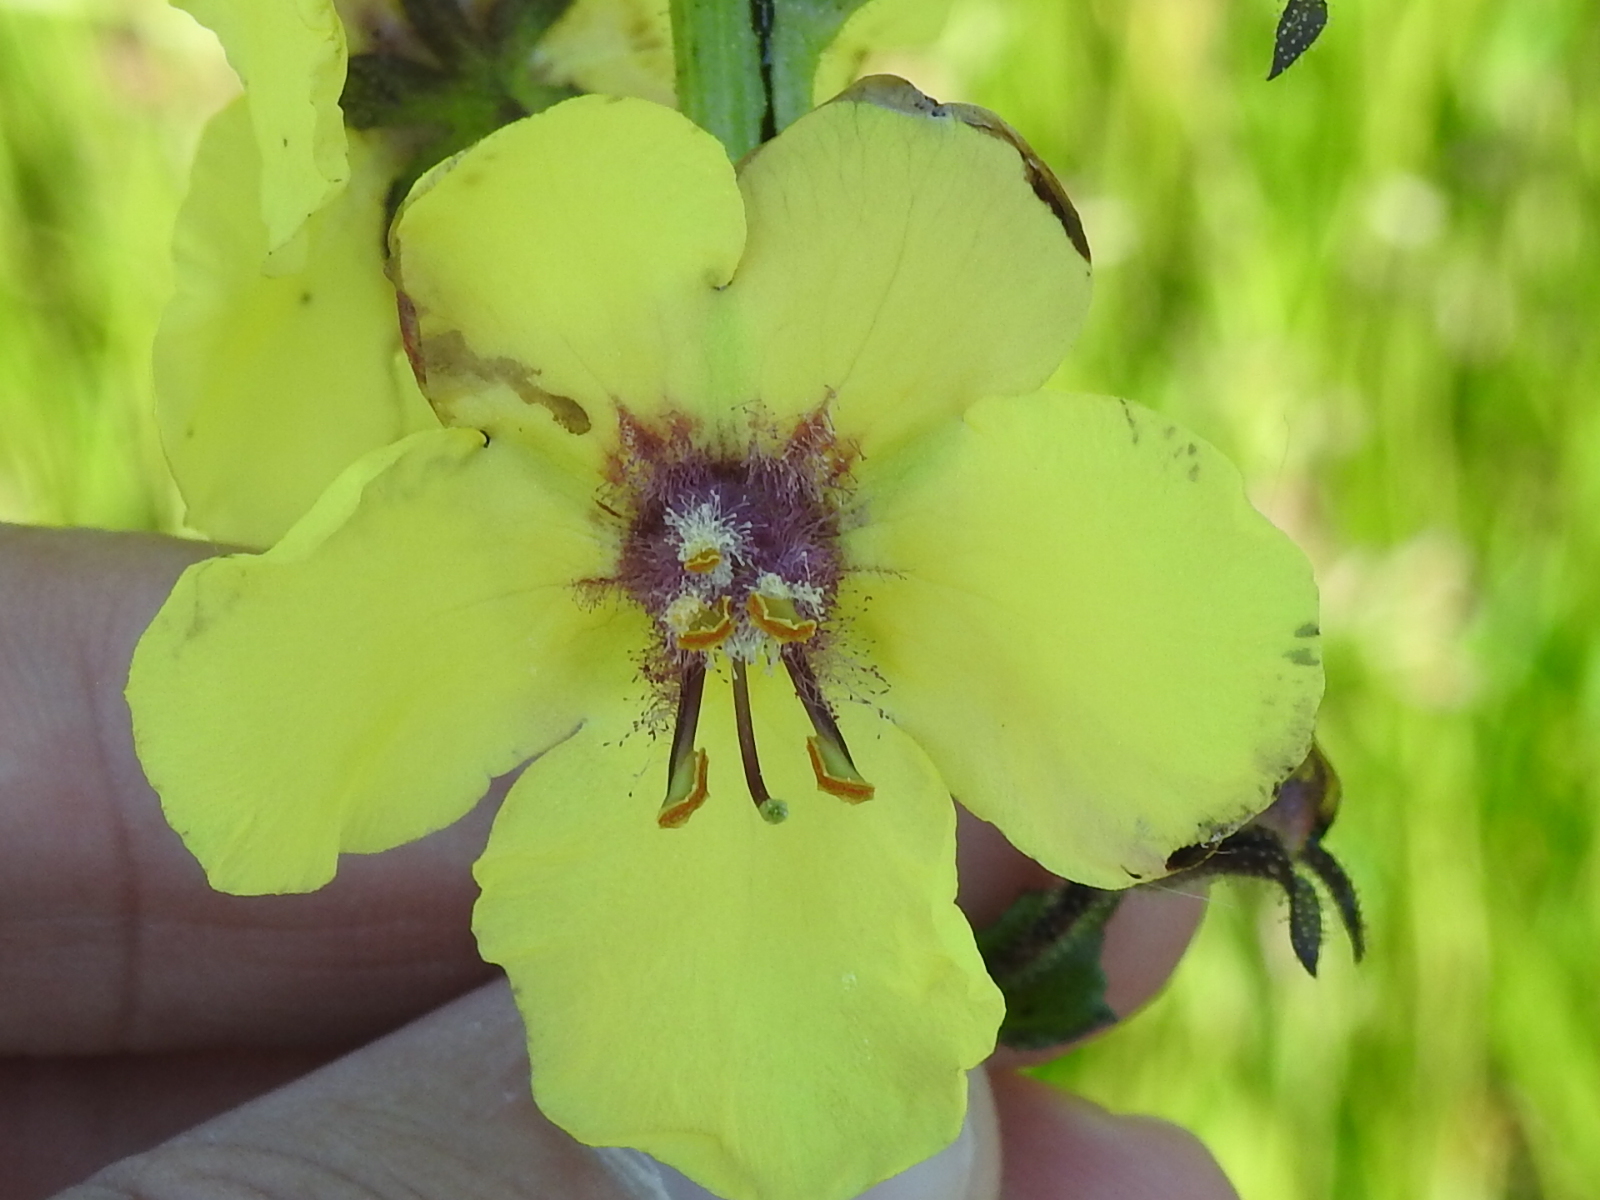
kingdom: Plantae
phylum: Tracheophyta
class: Magnoliopsida
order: Lamiales
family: Scrophulariaceae
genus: Verbascum
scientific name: Verbascum blattaria
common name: Moth mullein
